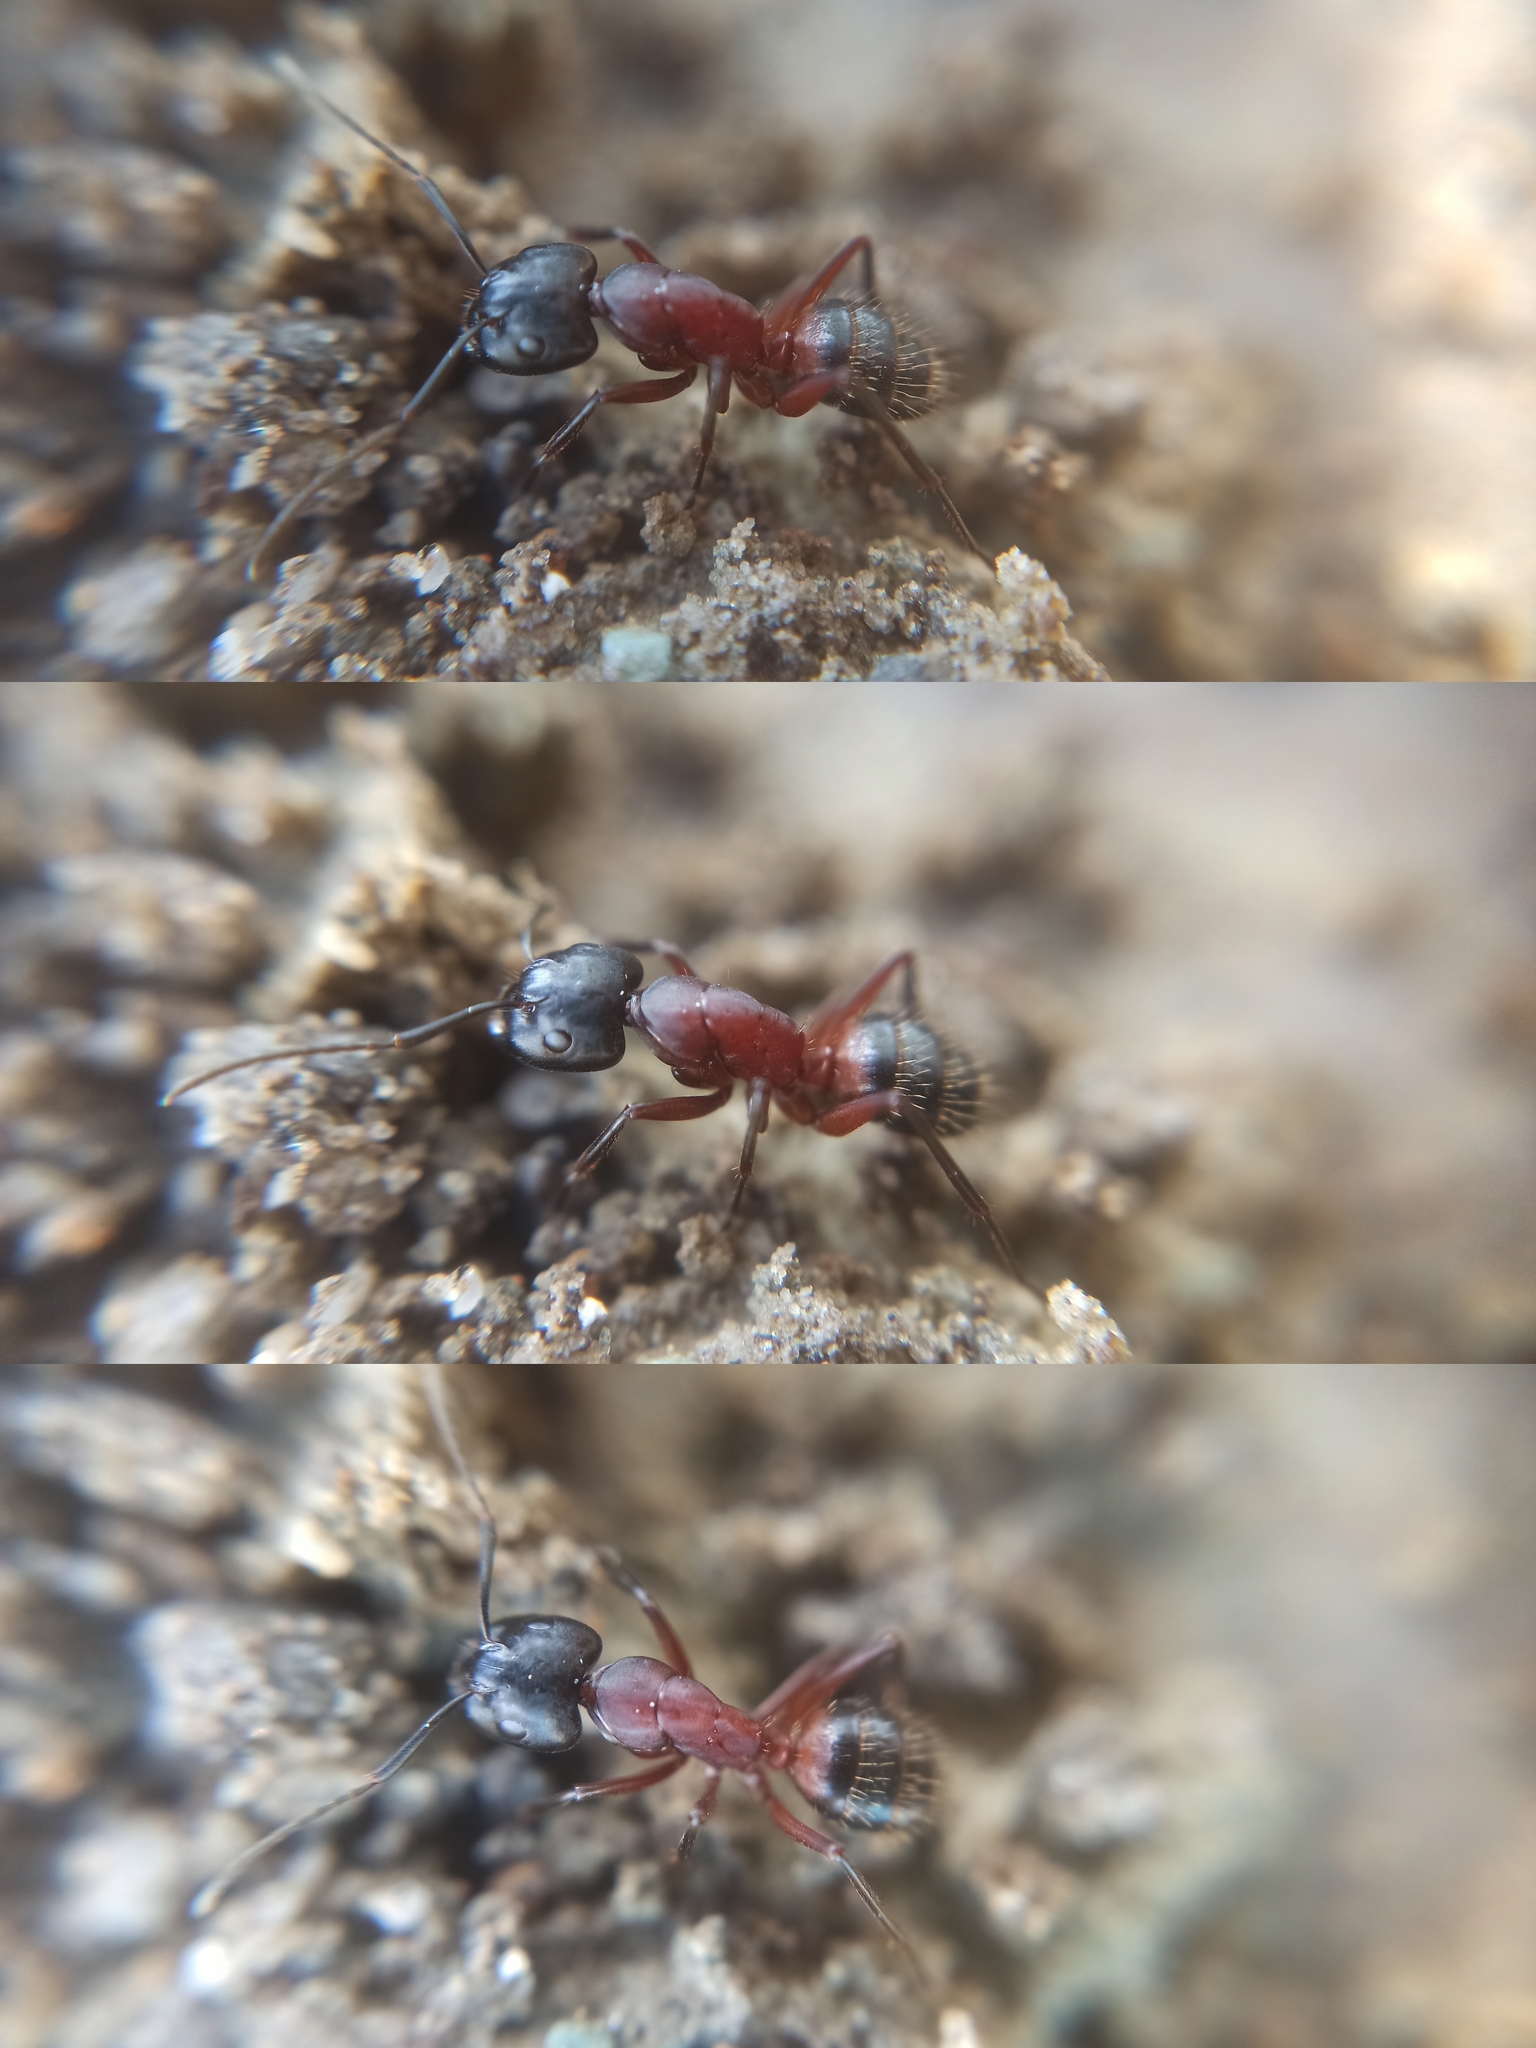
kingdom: Animalia
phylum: Arthropoda
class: Insecta
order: Hymenoptera
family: Formicidae
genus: Camponotus
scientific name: Camponotus ligniperdus
